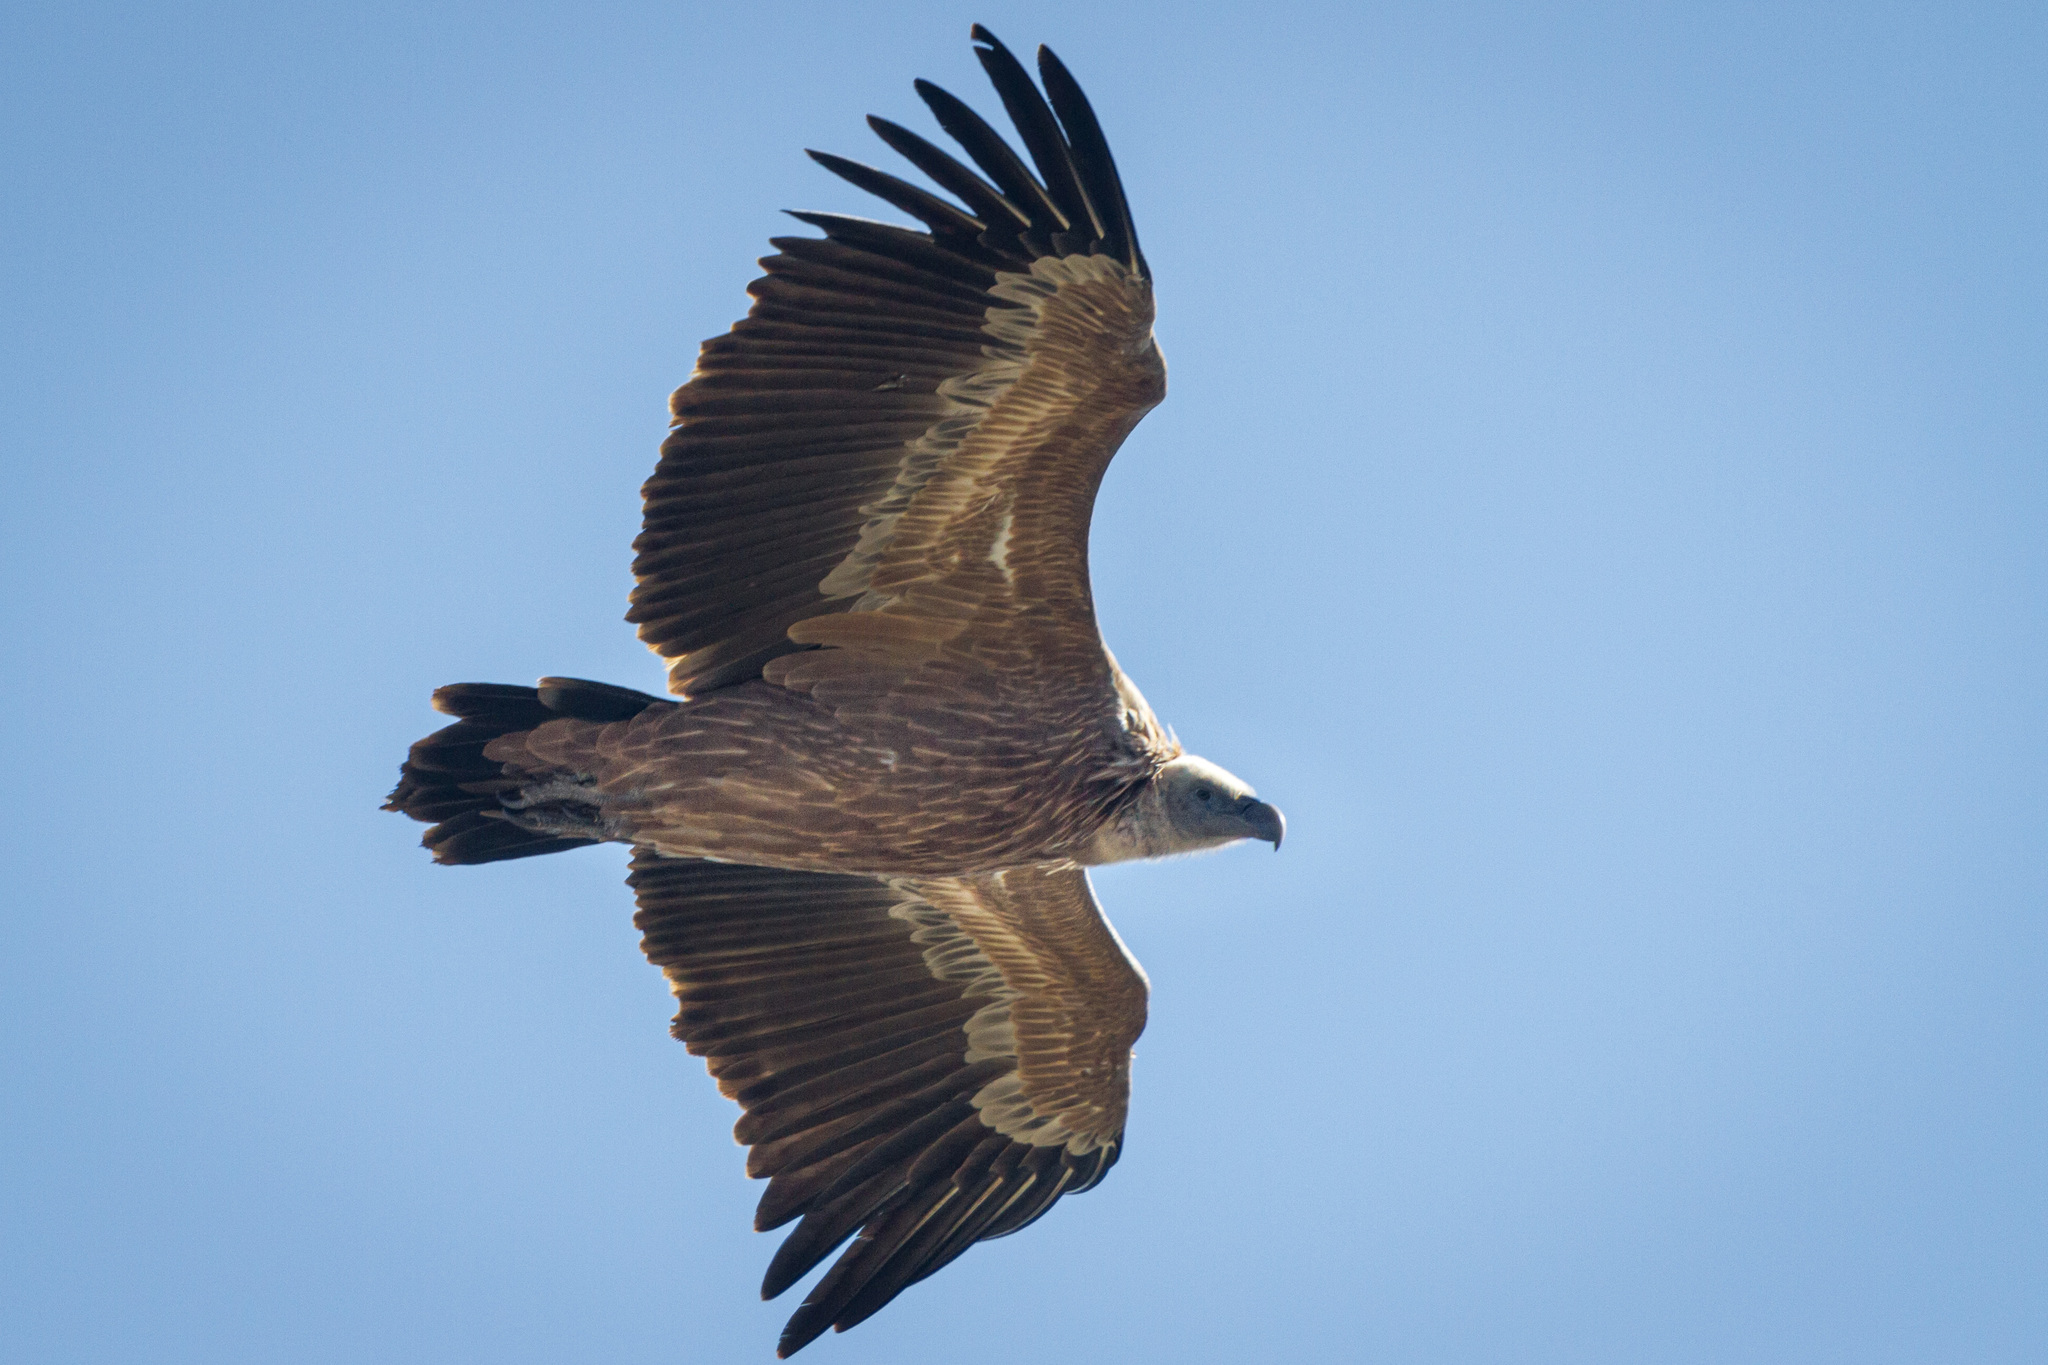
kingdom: Animalia
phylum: Chordata
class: Aves
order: Accipitriformes
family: Accipitridae
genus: Gyps
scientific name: Gyps fulvus
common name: Griffon vulture
